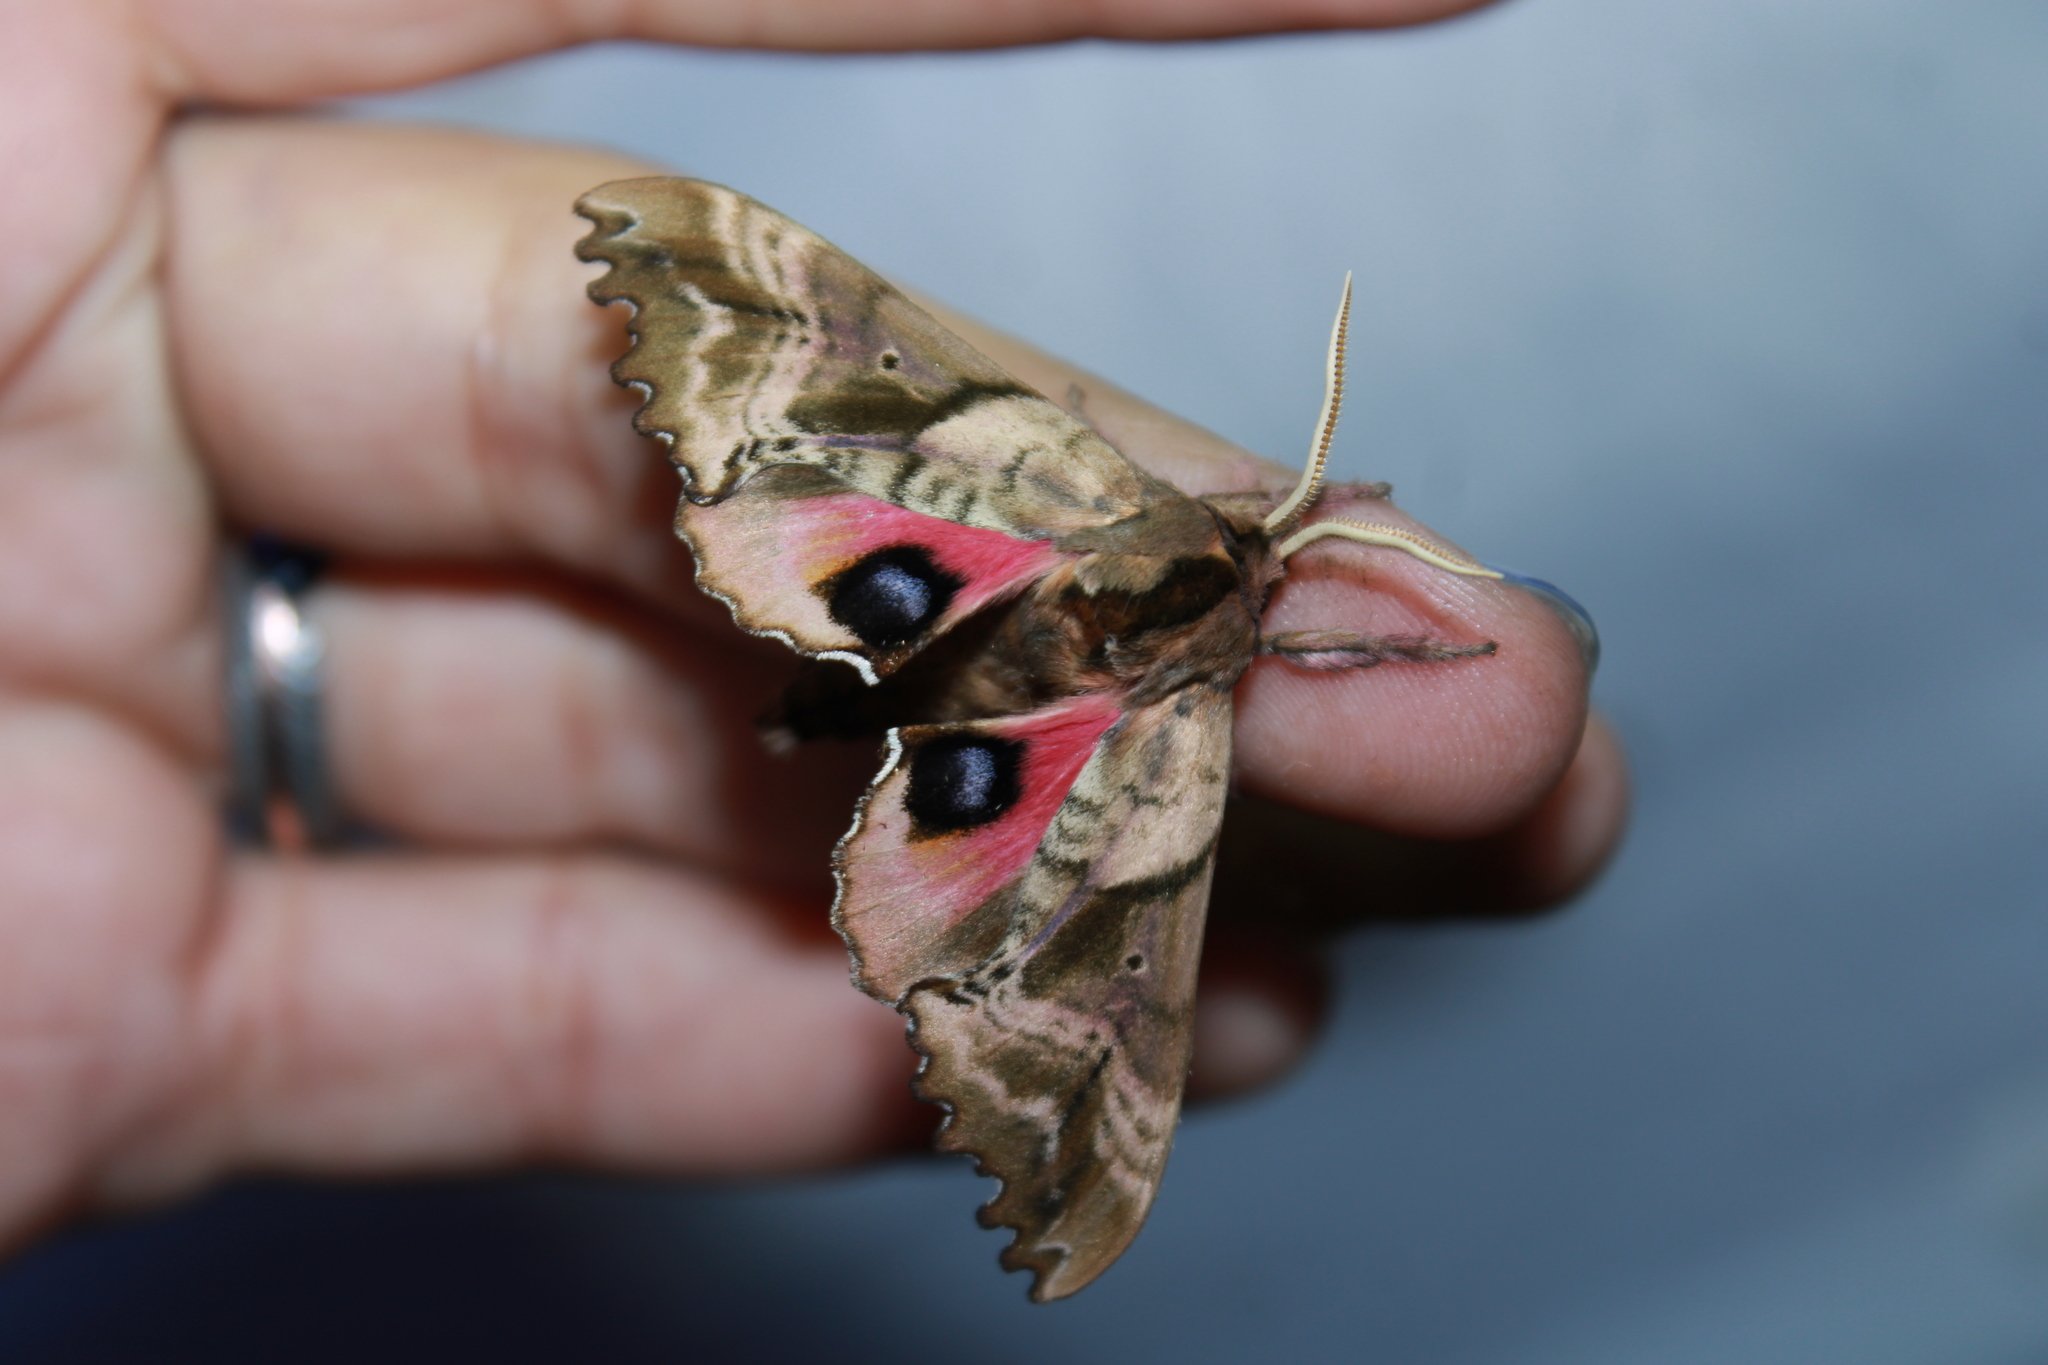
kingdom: Animalia
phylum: Arthropoda
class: Insecta
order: Lepidoptera
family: Sphingidae
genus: Paonias
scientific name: Paonias excaecata
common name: Blind-eyed sphinx
